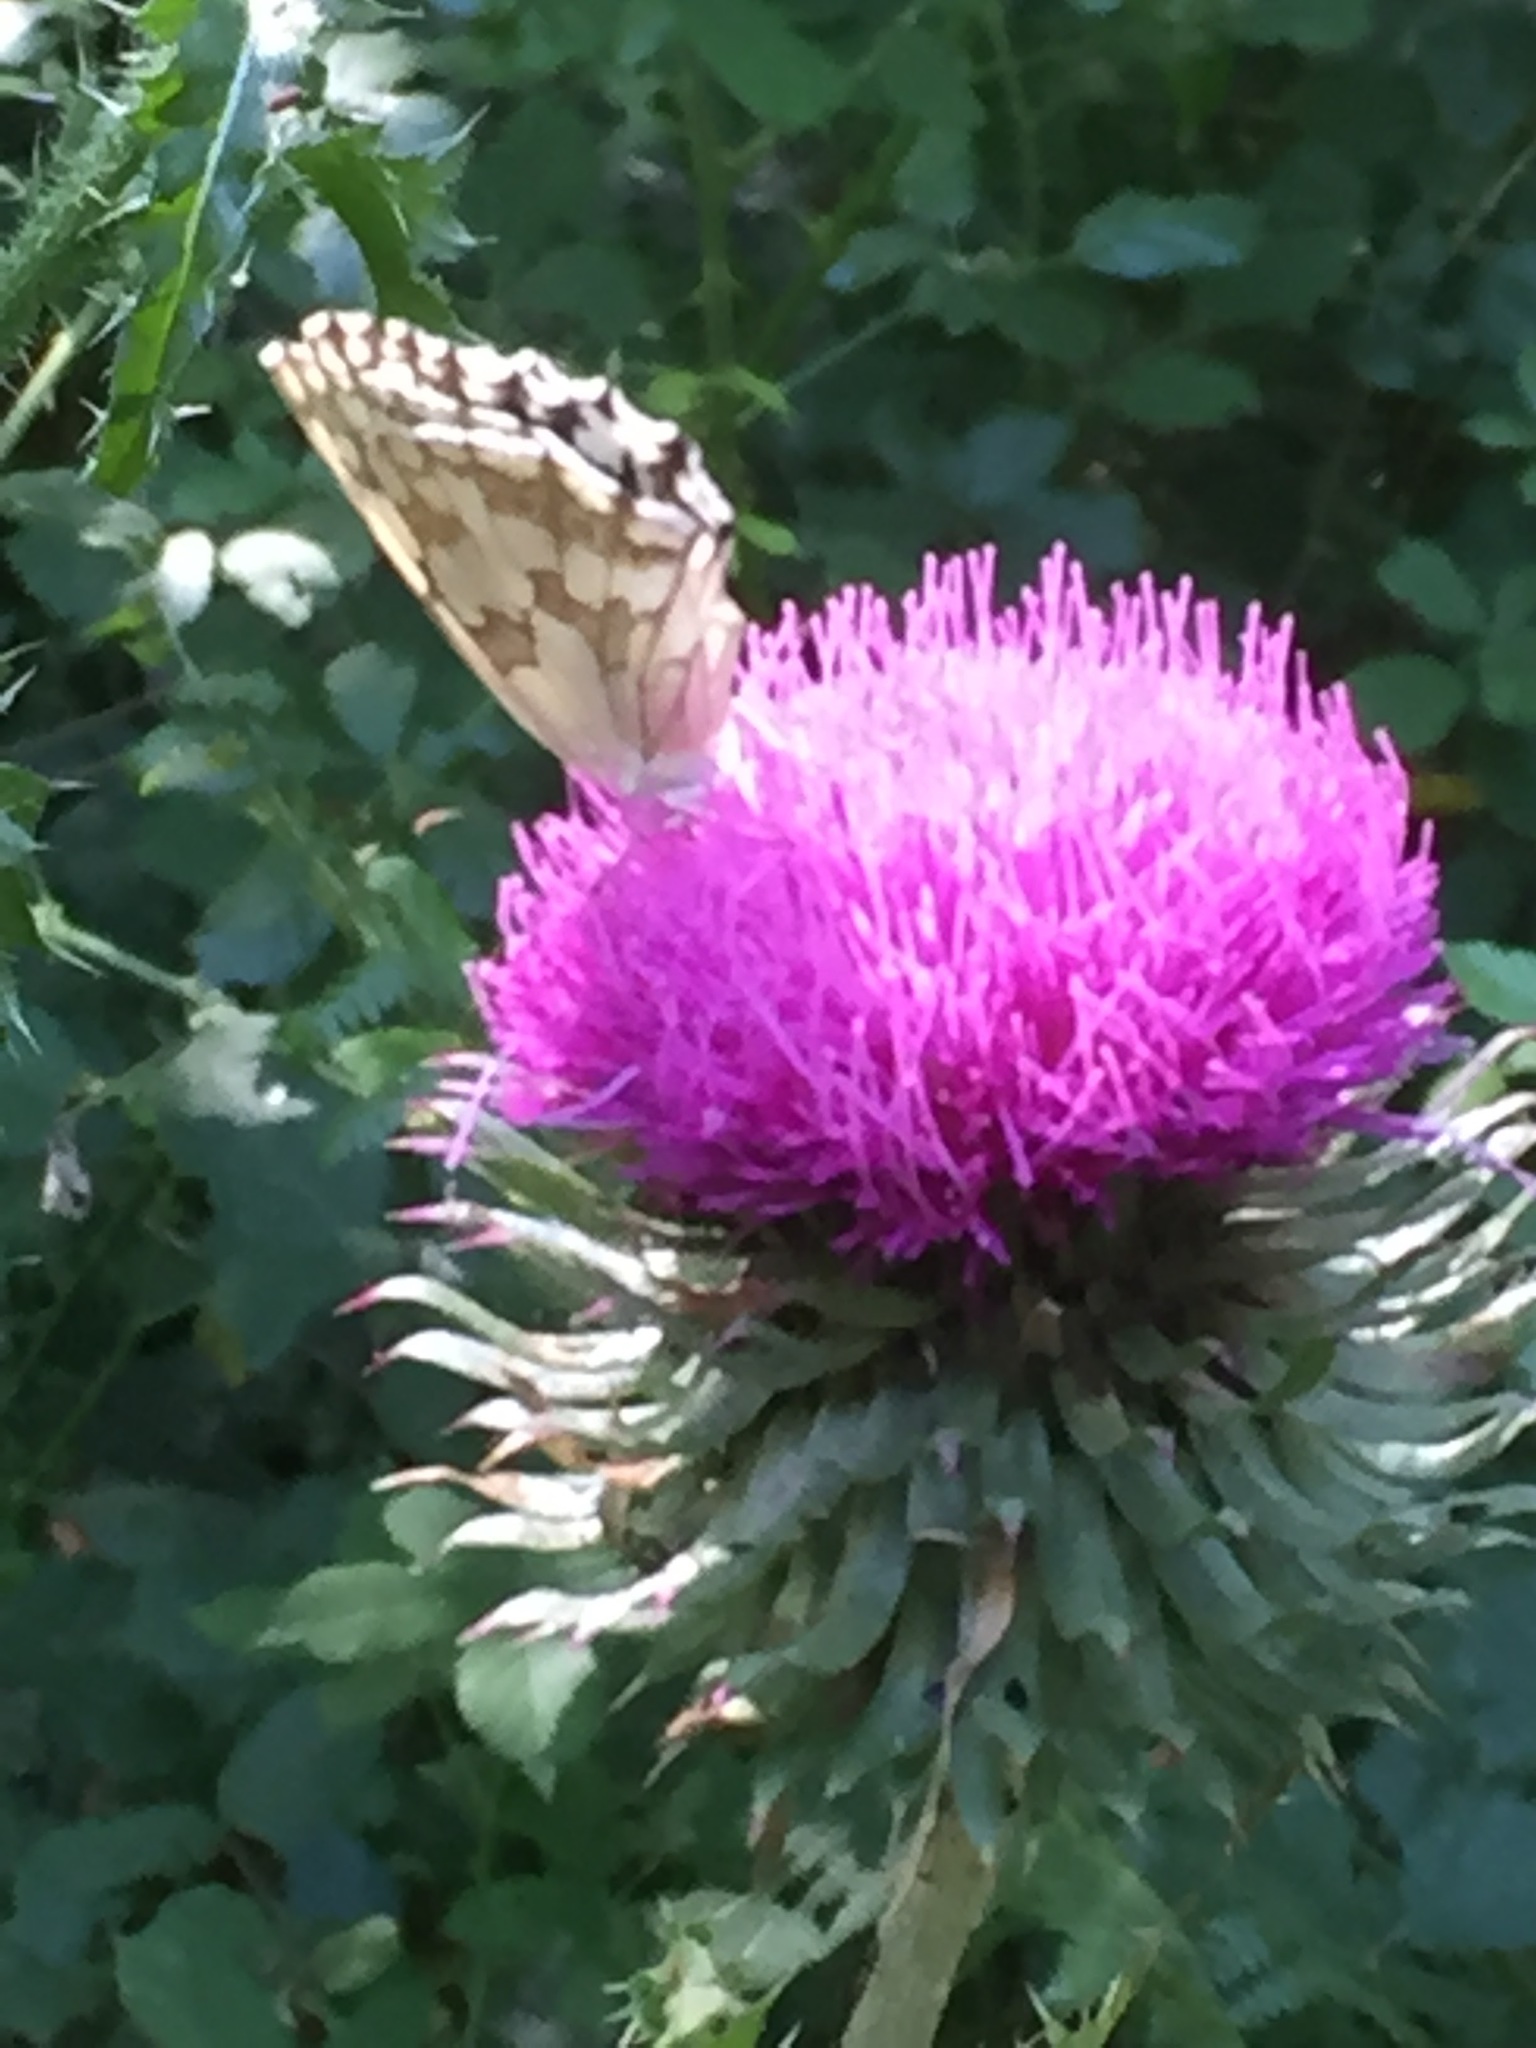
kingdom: Animalia
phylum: Arthropoda
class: Insecta
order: Lepidoptera
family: Nymphalidae
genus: Melanargia
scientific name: Melanargia lachesis
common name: Iberian marbled white
